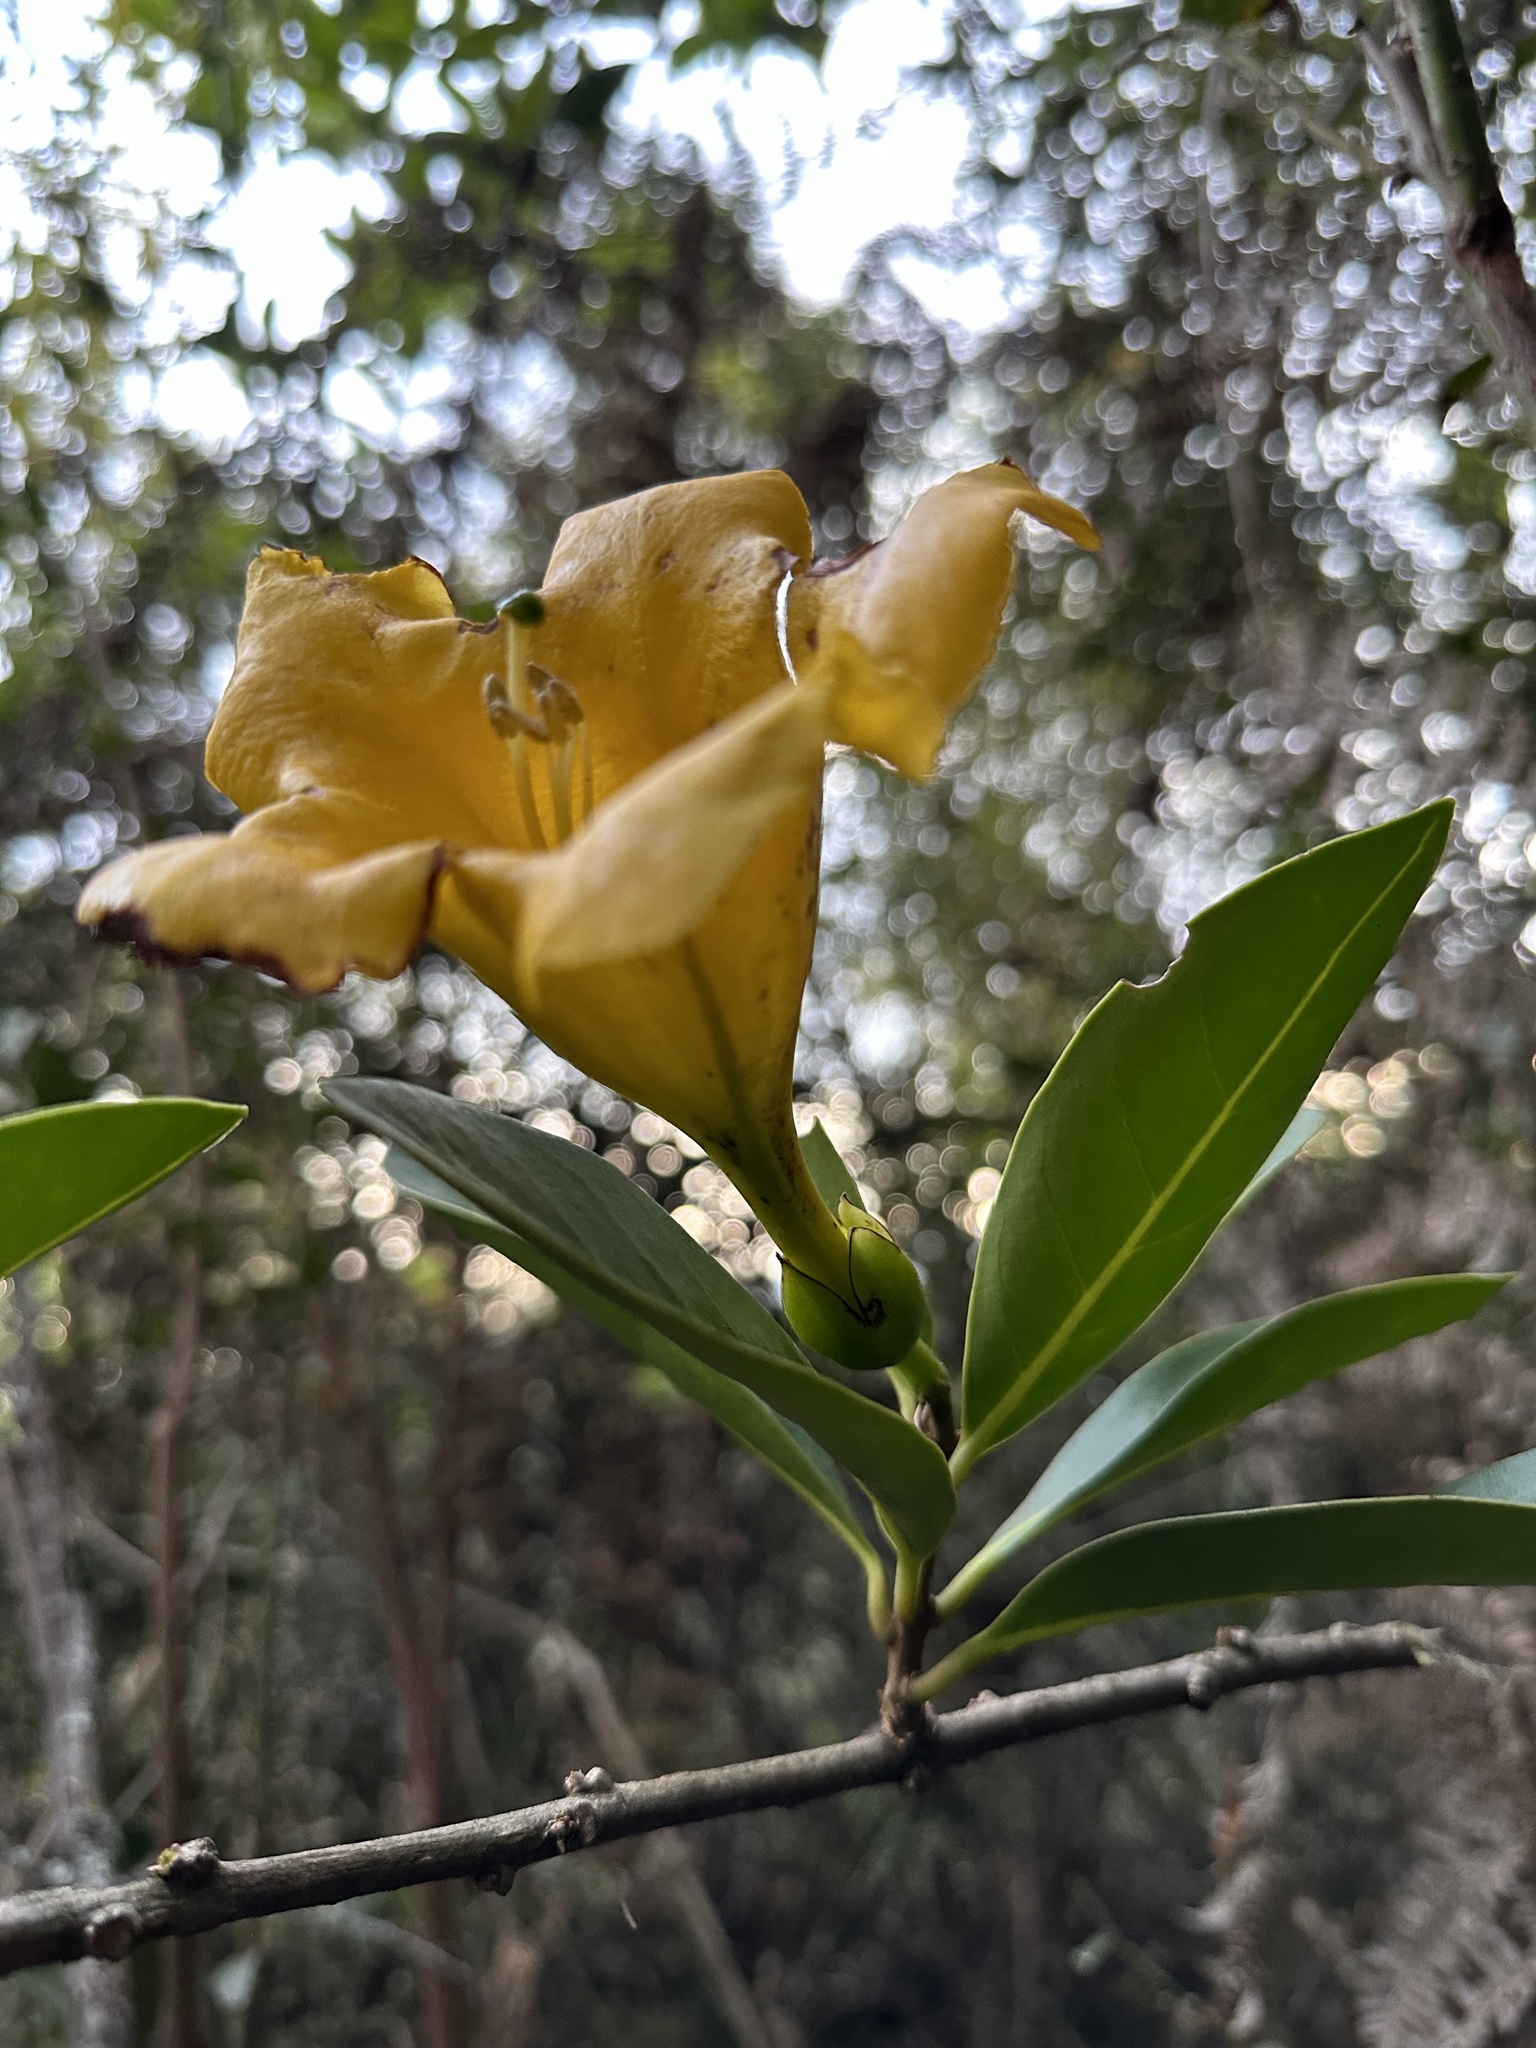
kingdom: Plantae
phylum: Tracheophyta
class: Magnoliopsida
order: Solanales
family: Solanaceae
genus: Schultesianthus
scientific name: Schultesianthus coriaceus
